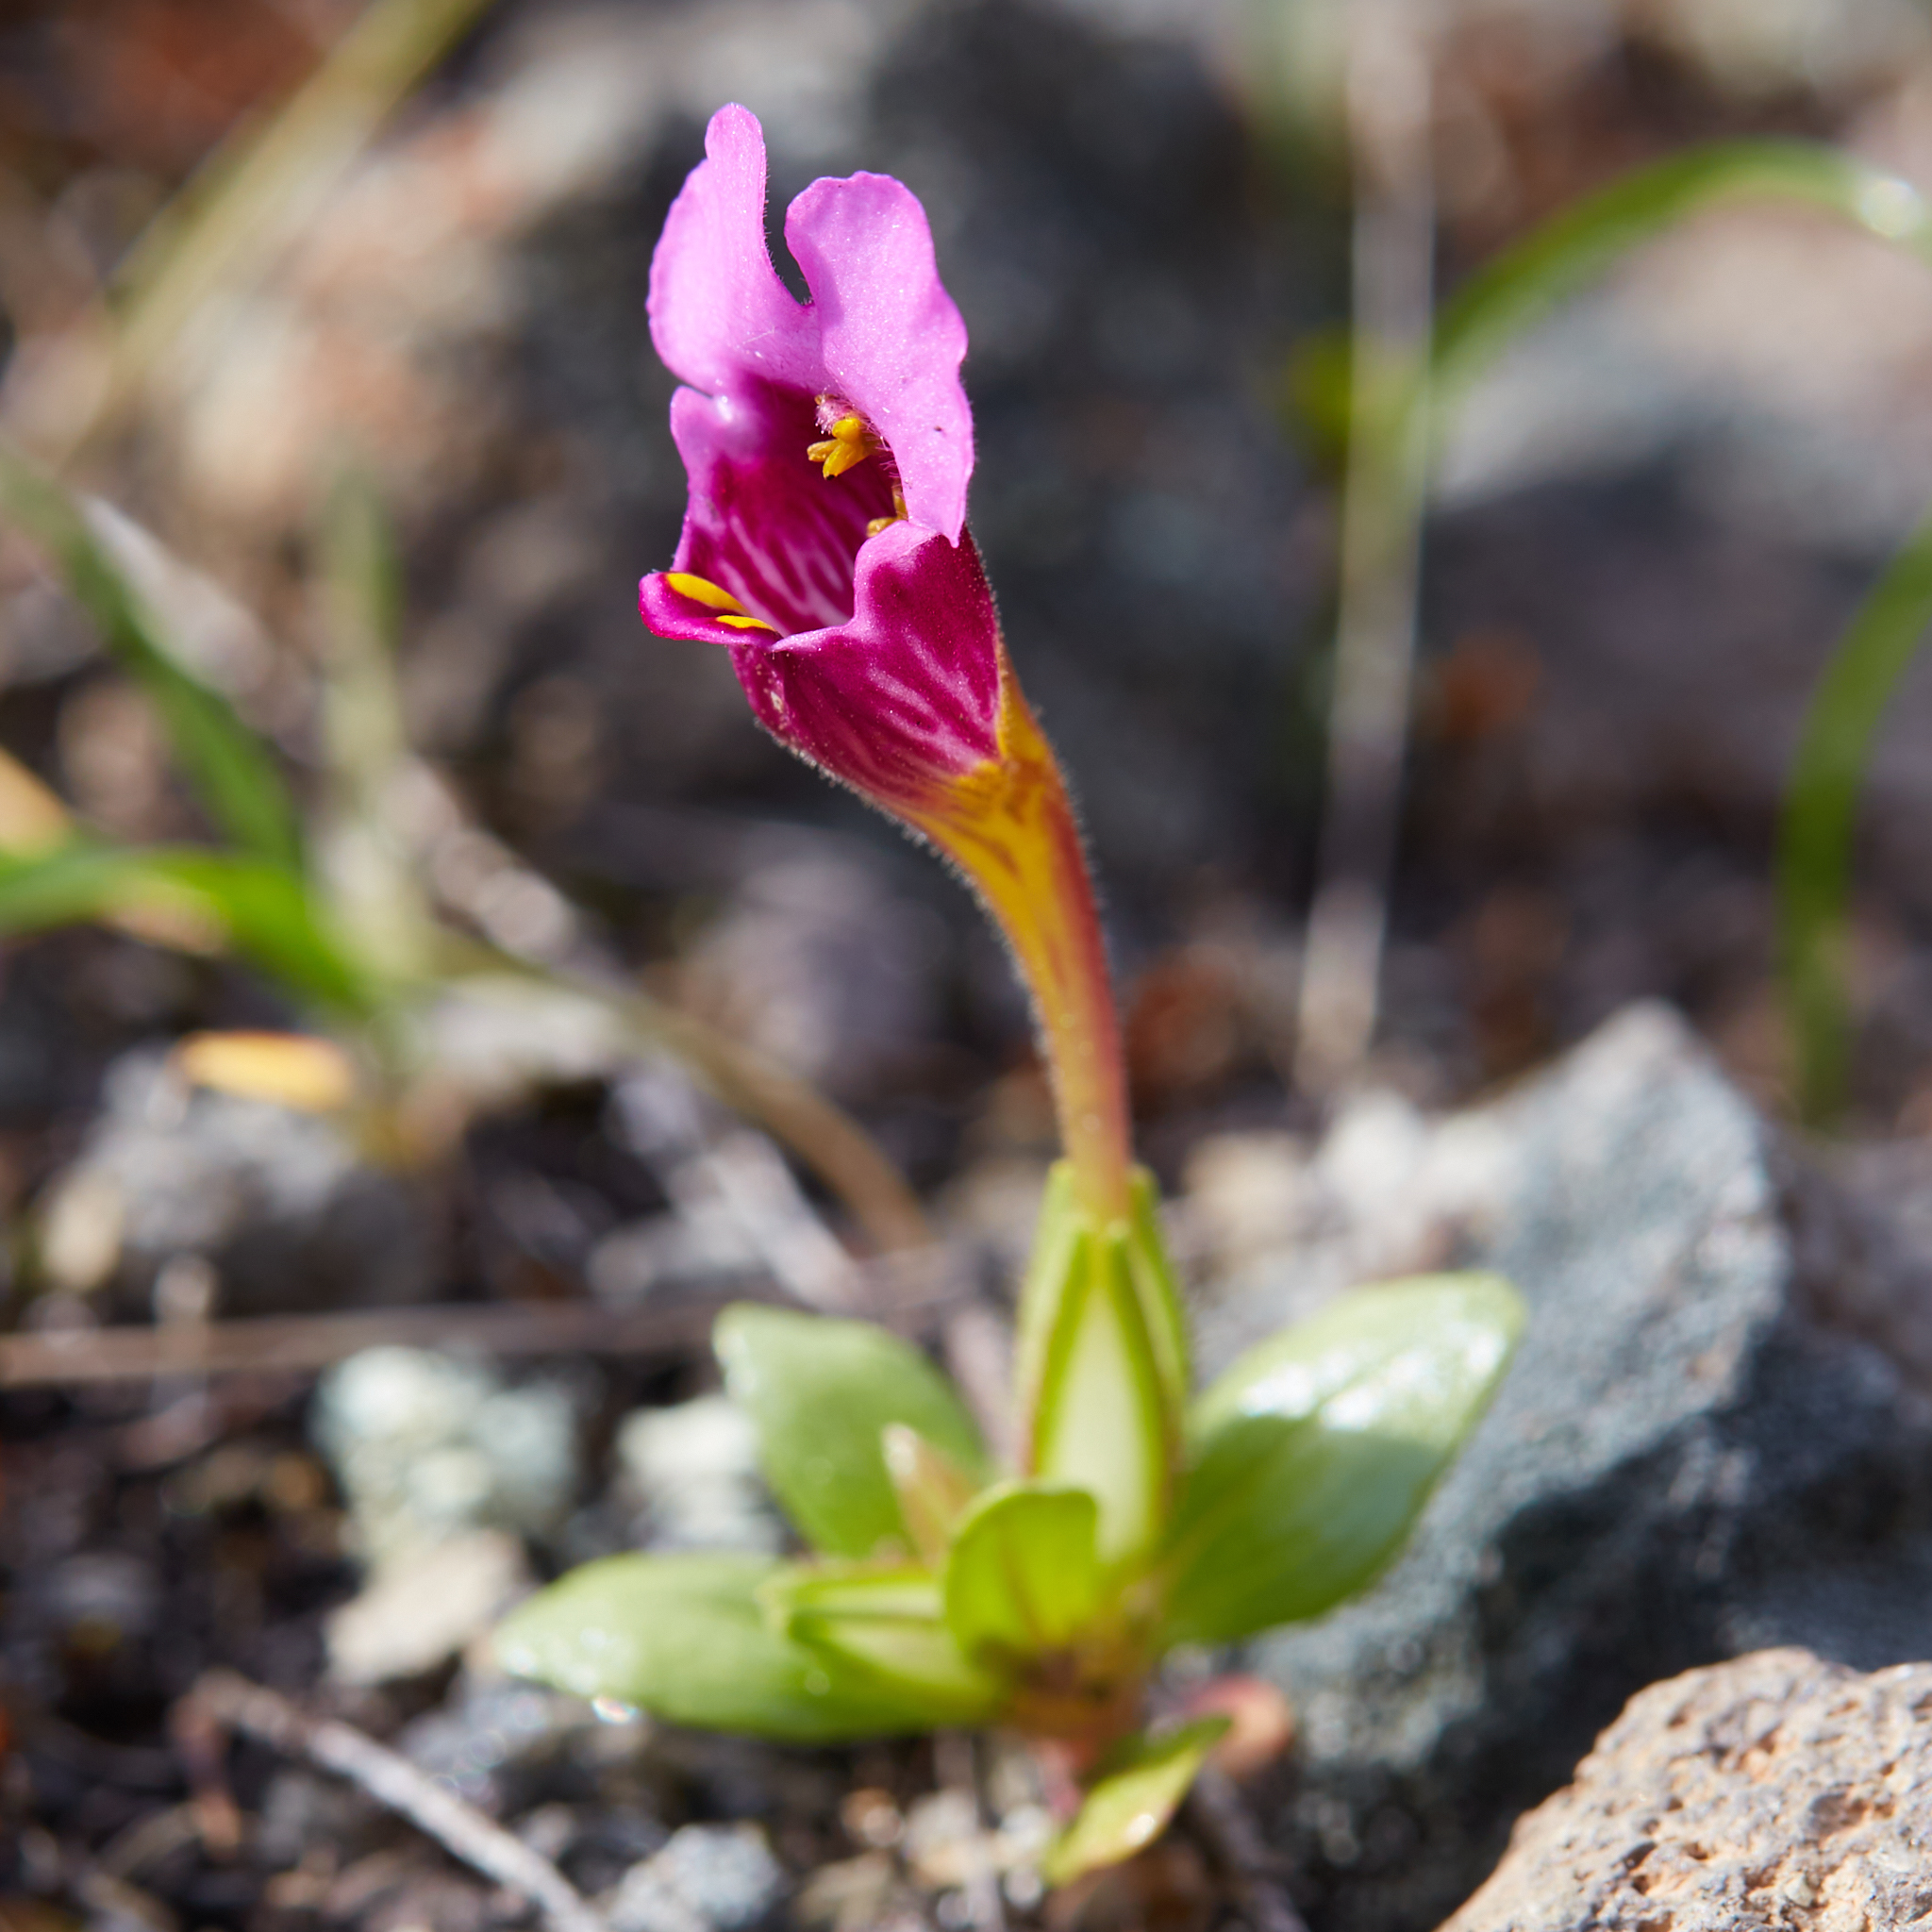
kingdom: Plantae
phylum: Tracheophyta
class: Magnoliopsida
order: Lamiales
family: Phrymaceae
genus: Diplacus
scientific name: Diplacus douglasii
